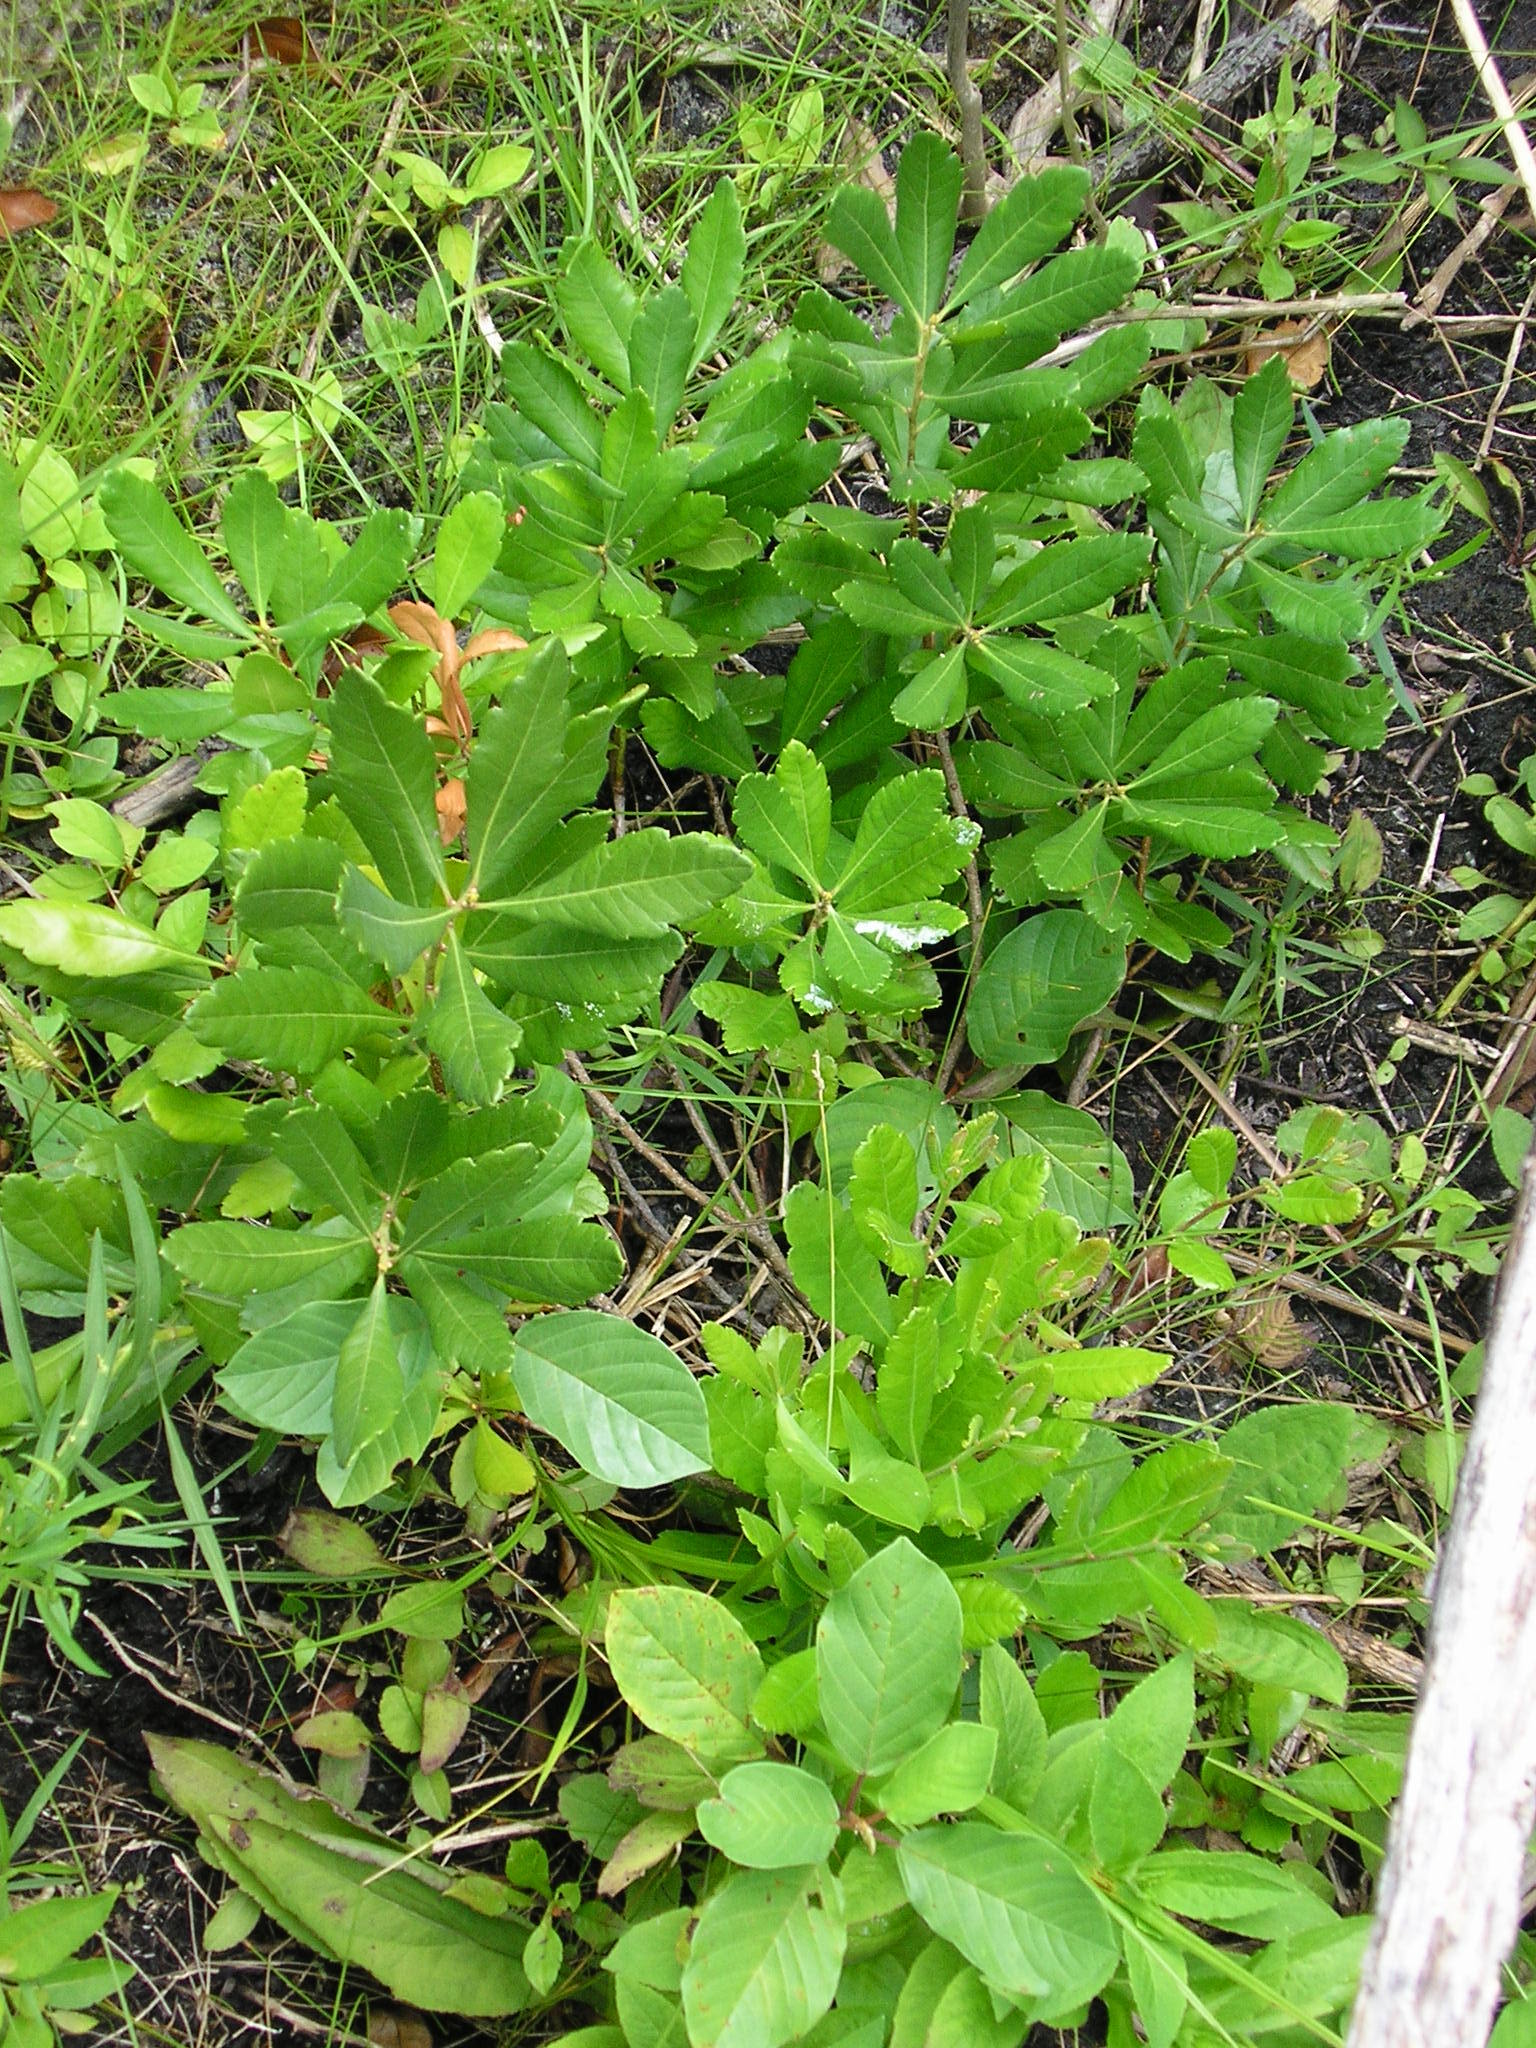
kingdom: Plantae
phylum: Tracheophyta
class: Magnoliopsida
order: Fagales
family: Myricaceae
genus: Morella
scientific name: Morella pensylvanica
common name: Northern bayberry
